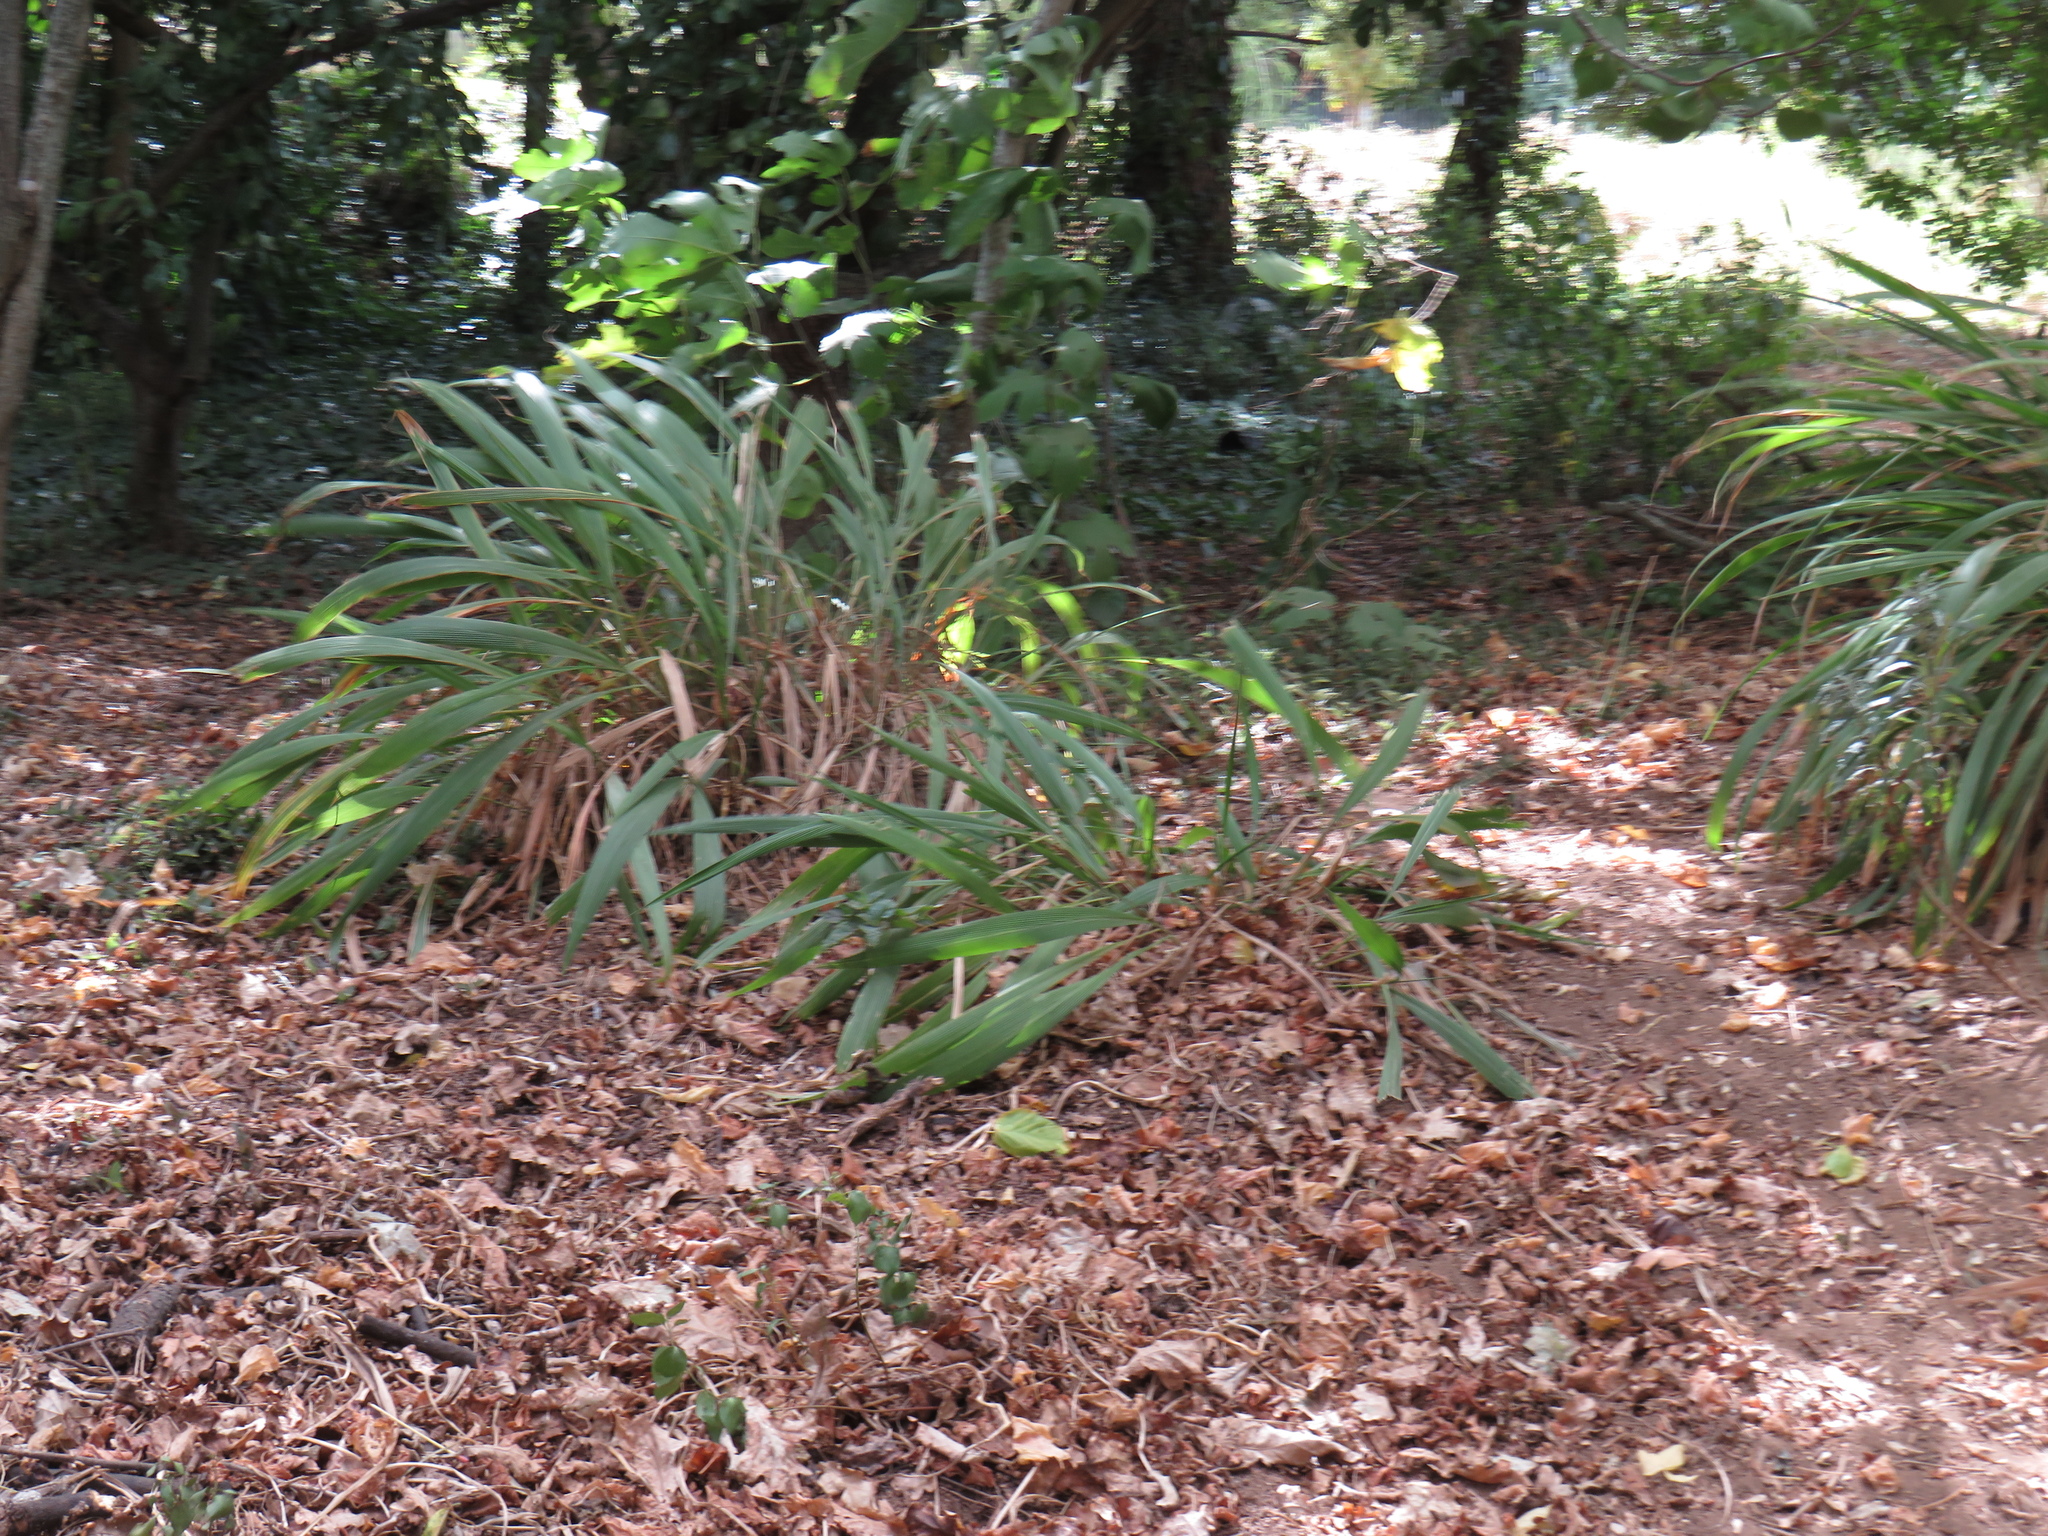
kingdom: Plantae
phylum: Tracheophyta
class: Liliopsida
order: Poales
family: Poaceae
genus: Setaria
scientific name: Setaria megaphylla
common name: Bigleaf bristlegrass
